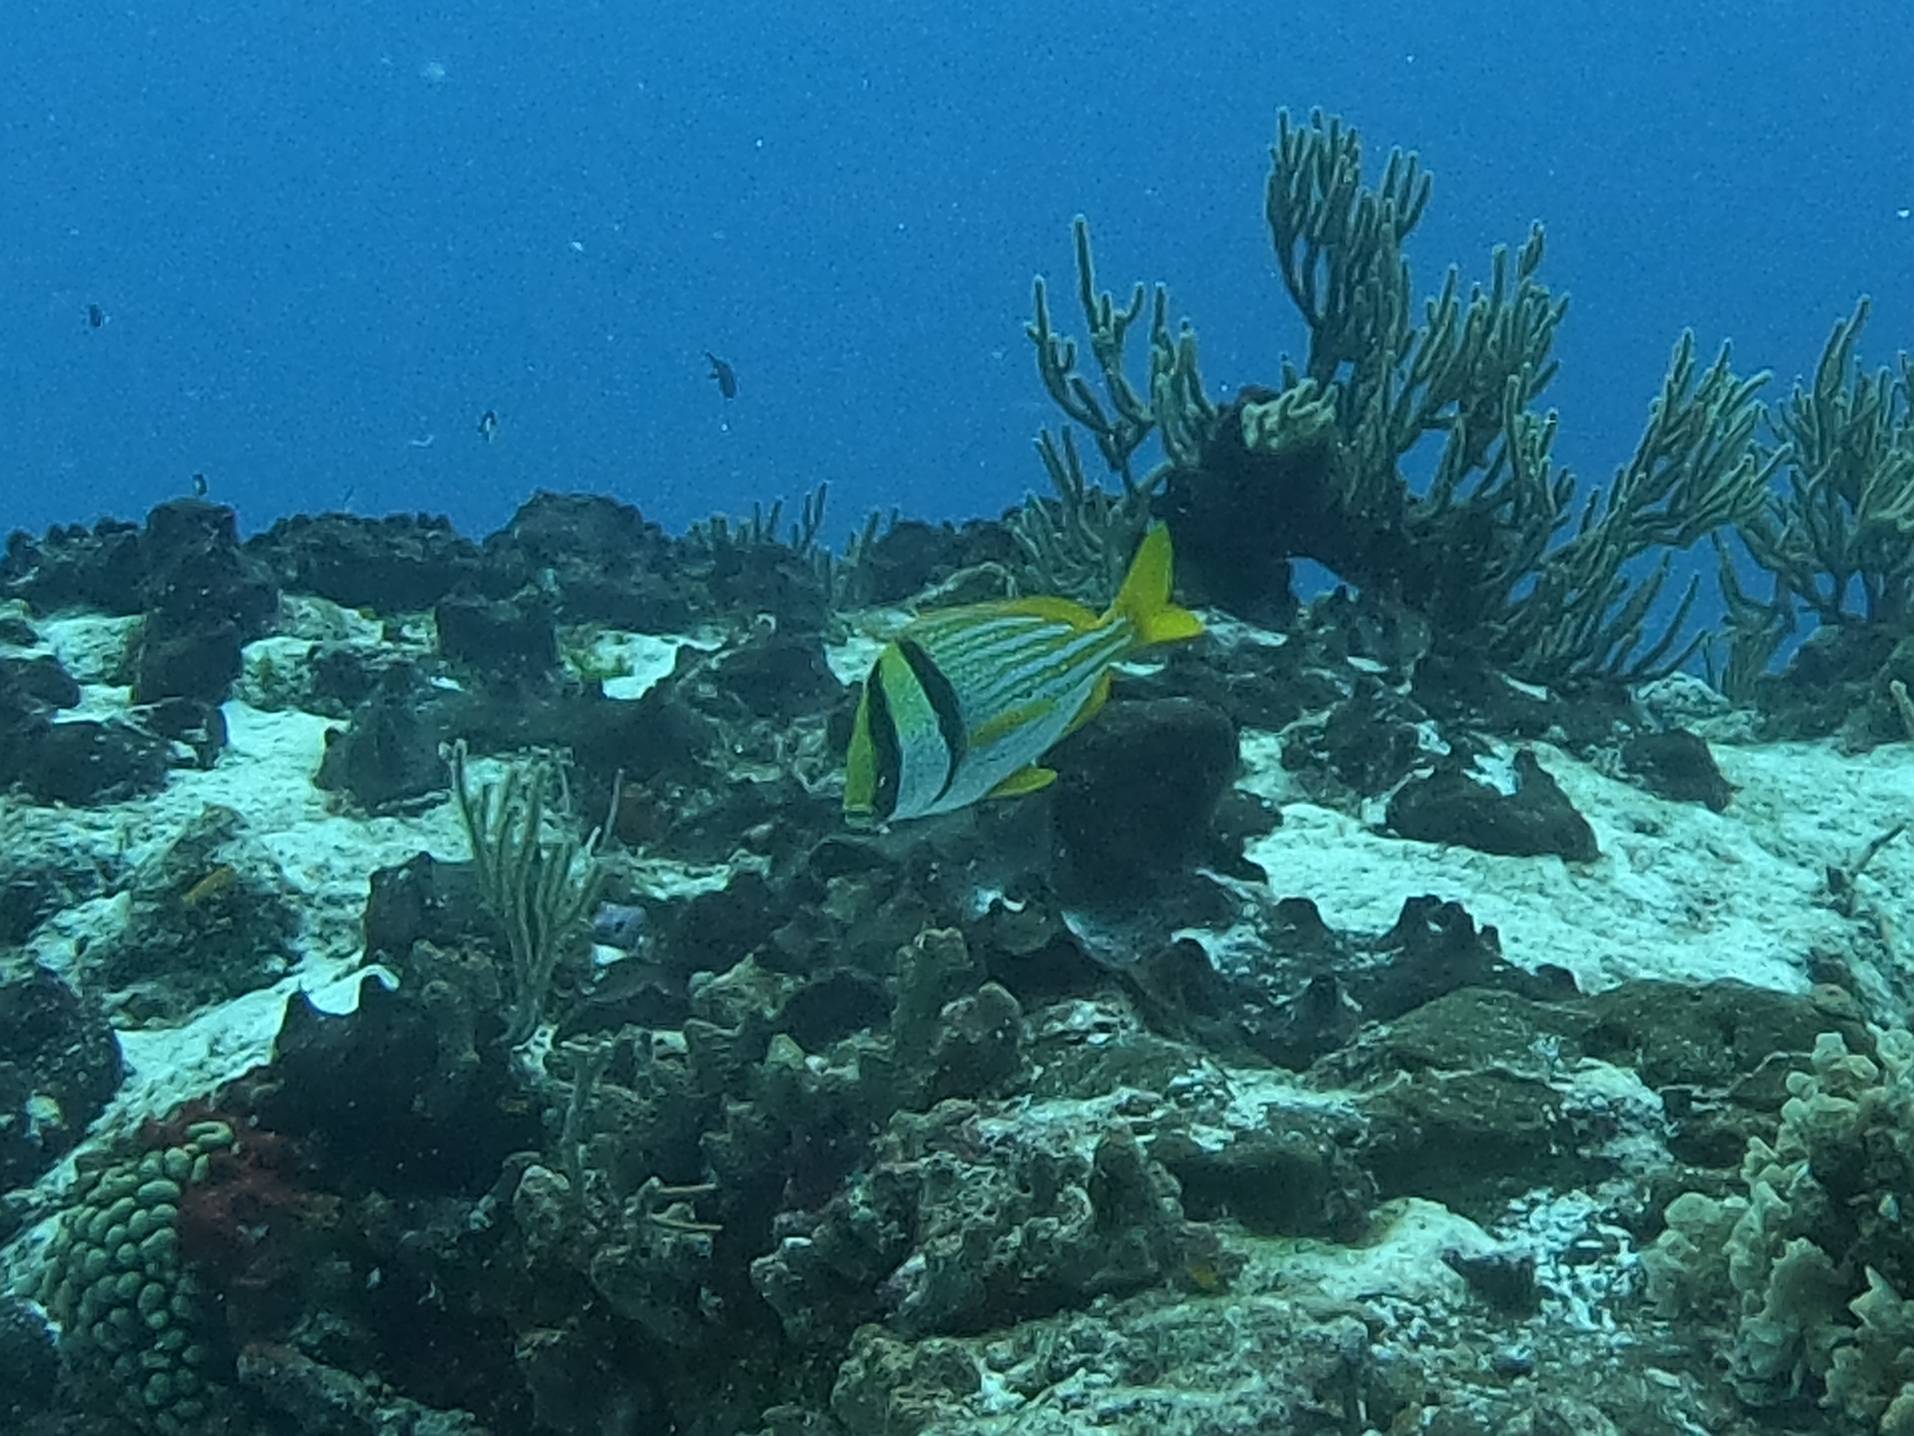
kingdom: Animalia
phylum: Chordata
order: Perciformes
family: Haemulidae
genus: Anisotremus
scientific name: Anisotremus virginicus
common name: Porkfish
